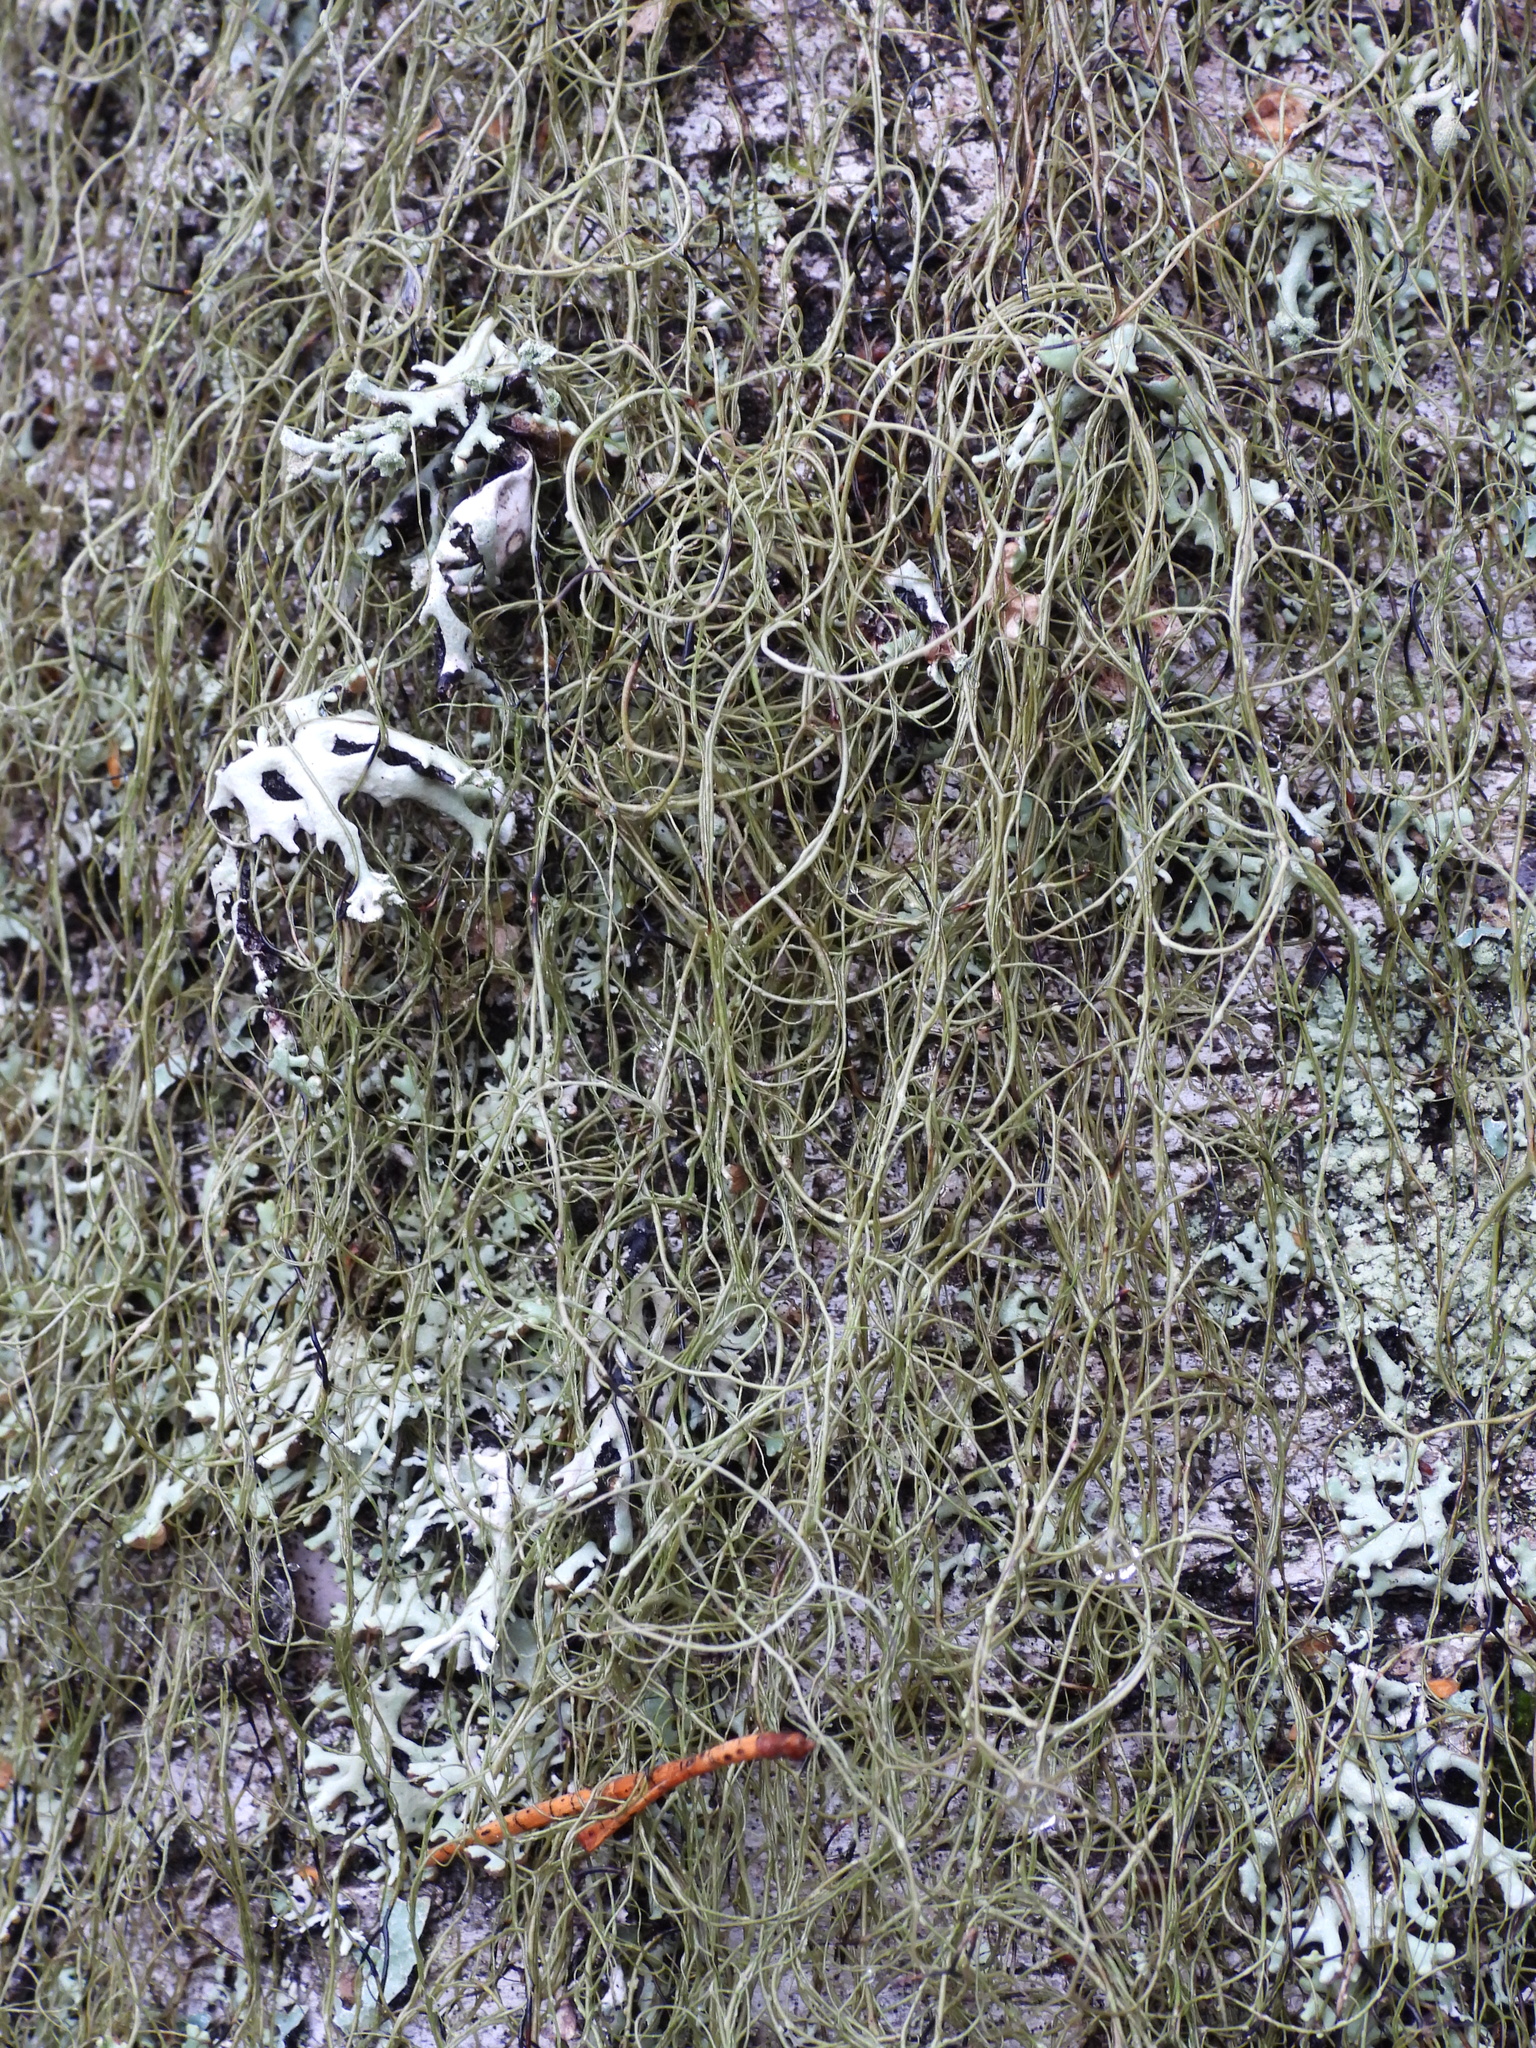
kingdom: Fungi
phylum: Ascomycota
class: Lecanoromycetes
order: Lecanorales
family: Parmeliaceae
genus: Bryoria
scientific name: Bryoria fuscescens
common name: Pale-footed horsehair lichen
